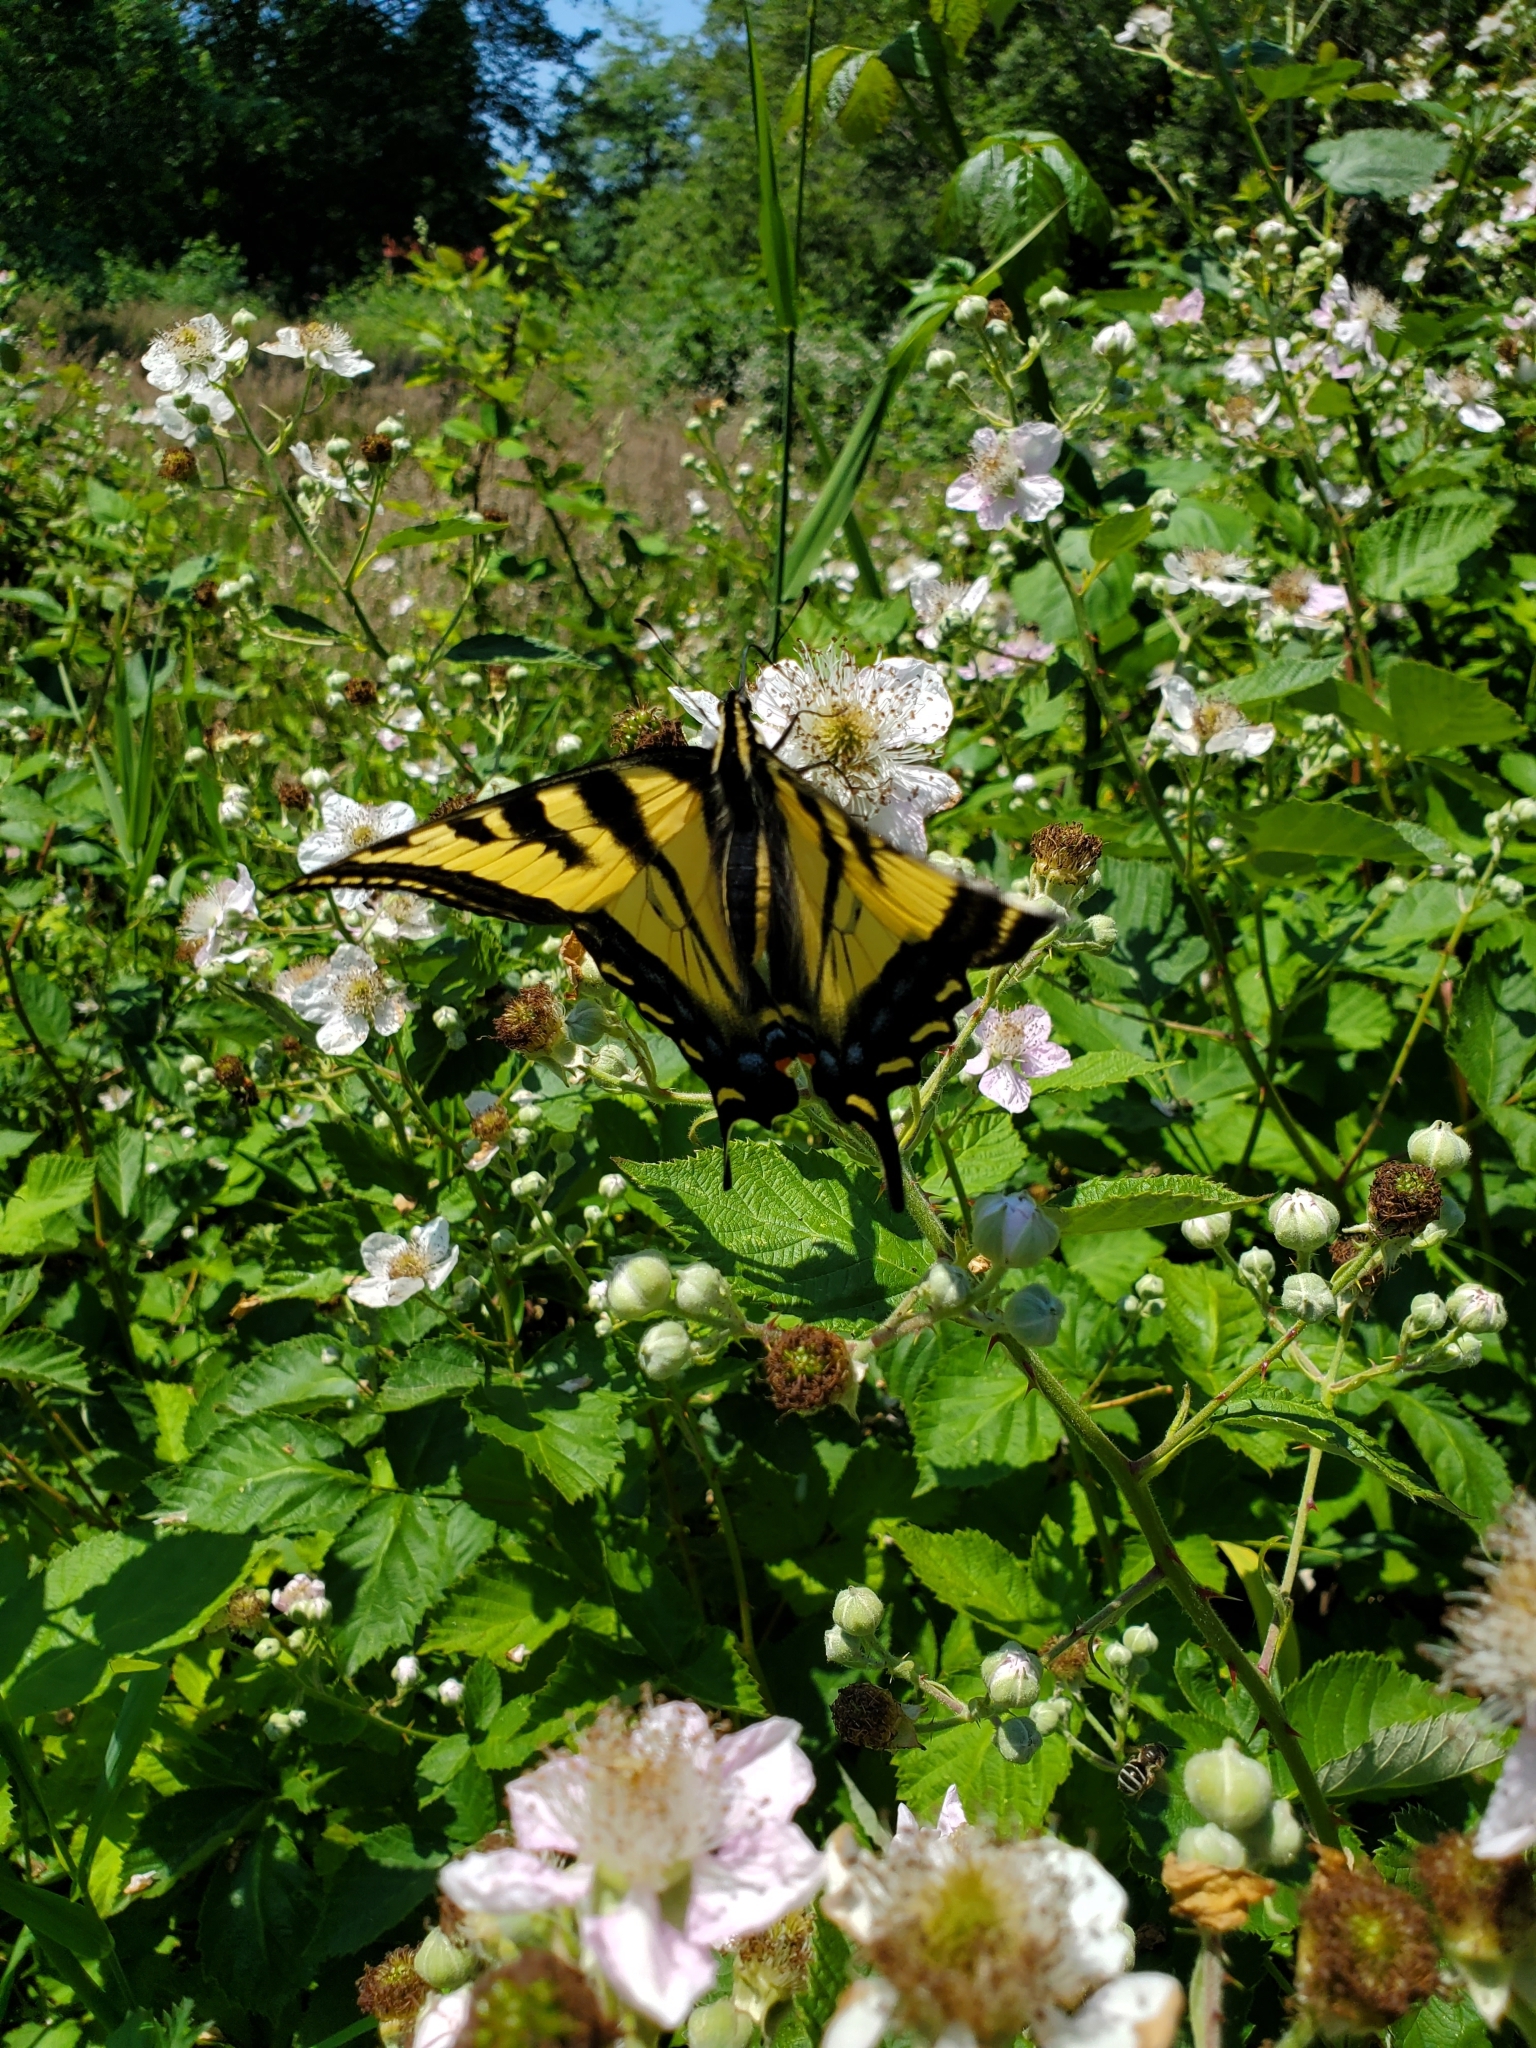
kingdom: Animalia
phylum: Arthropoda
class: Insecta
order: Lepidoptera
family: Papilionidae
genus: Papilio
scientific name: Papilio rutulus
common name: Western tiger swallowtail
